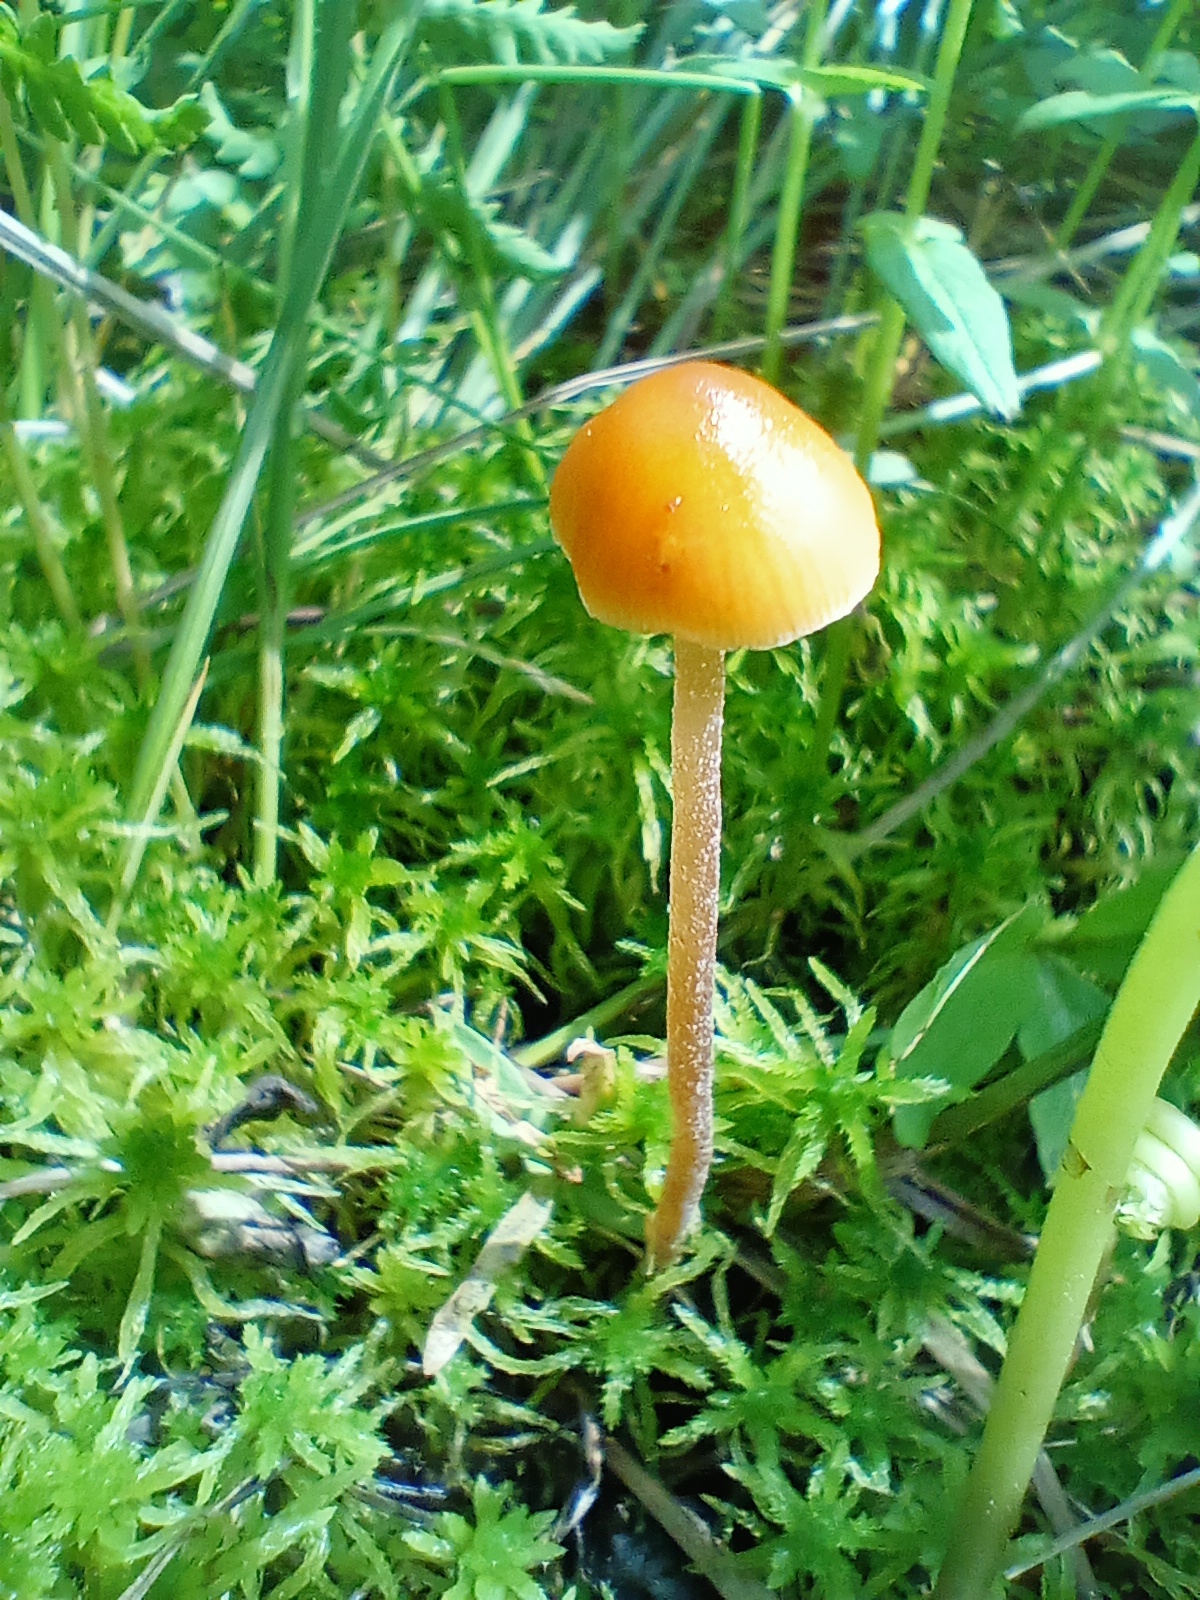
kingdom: Fungi
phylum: Basidiomycota
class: Agaricomycetes
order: Agaricales
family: Hymenogastraceae
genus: Galerina
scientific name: Galerina marginata
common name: Funeral bell
